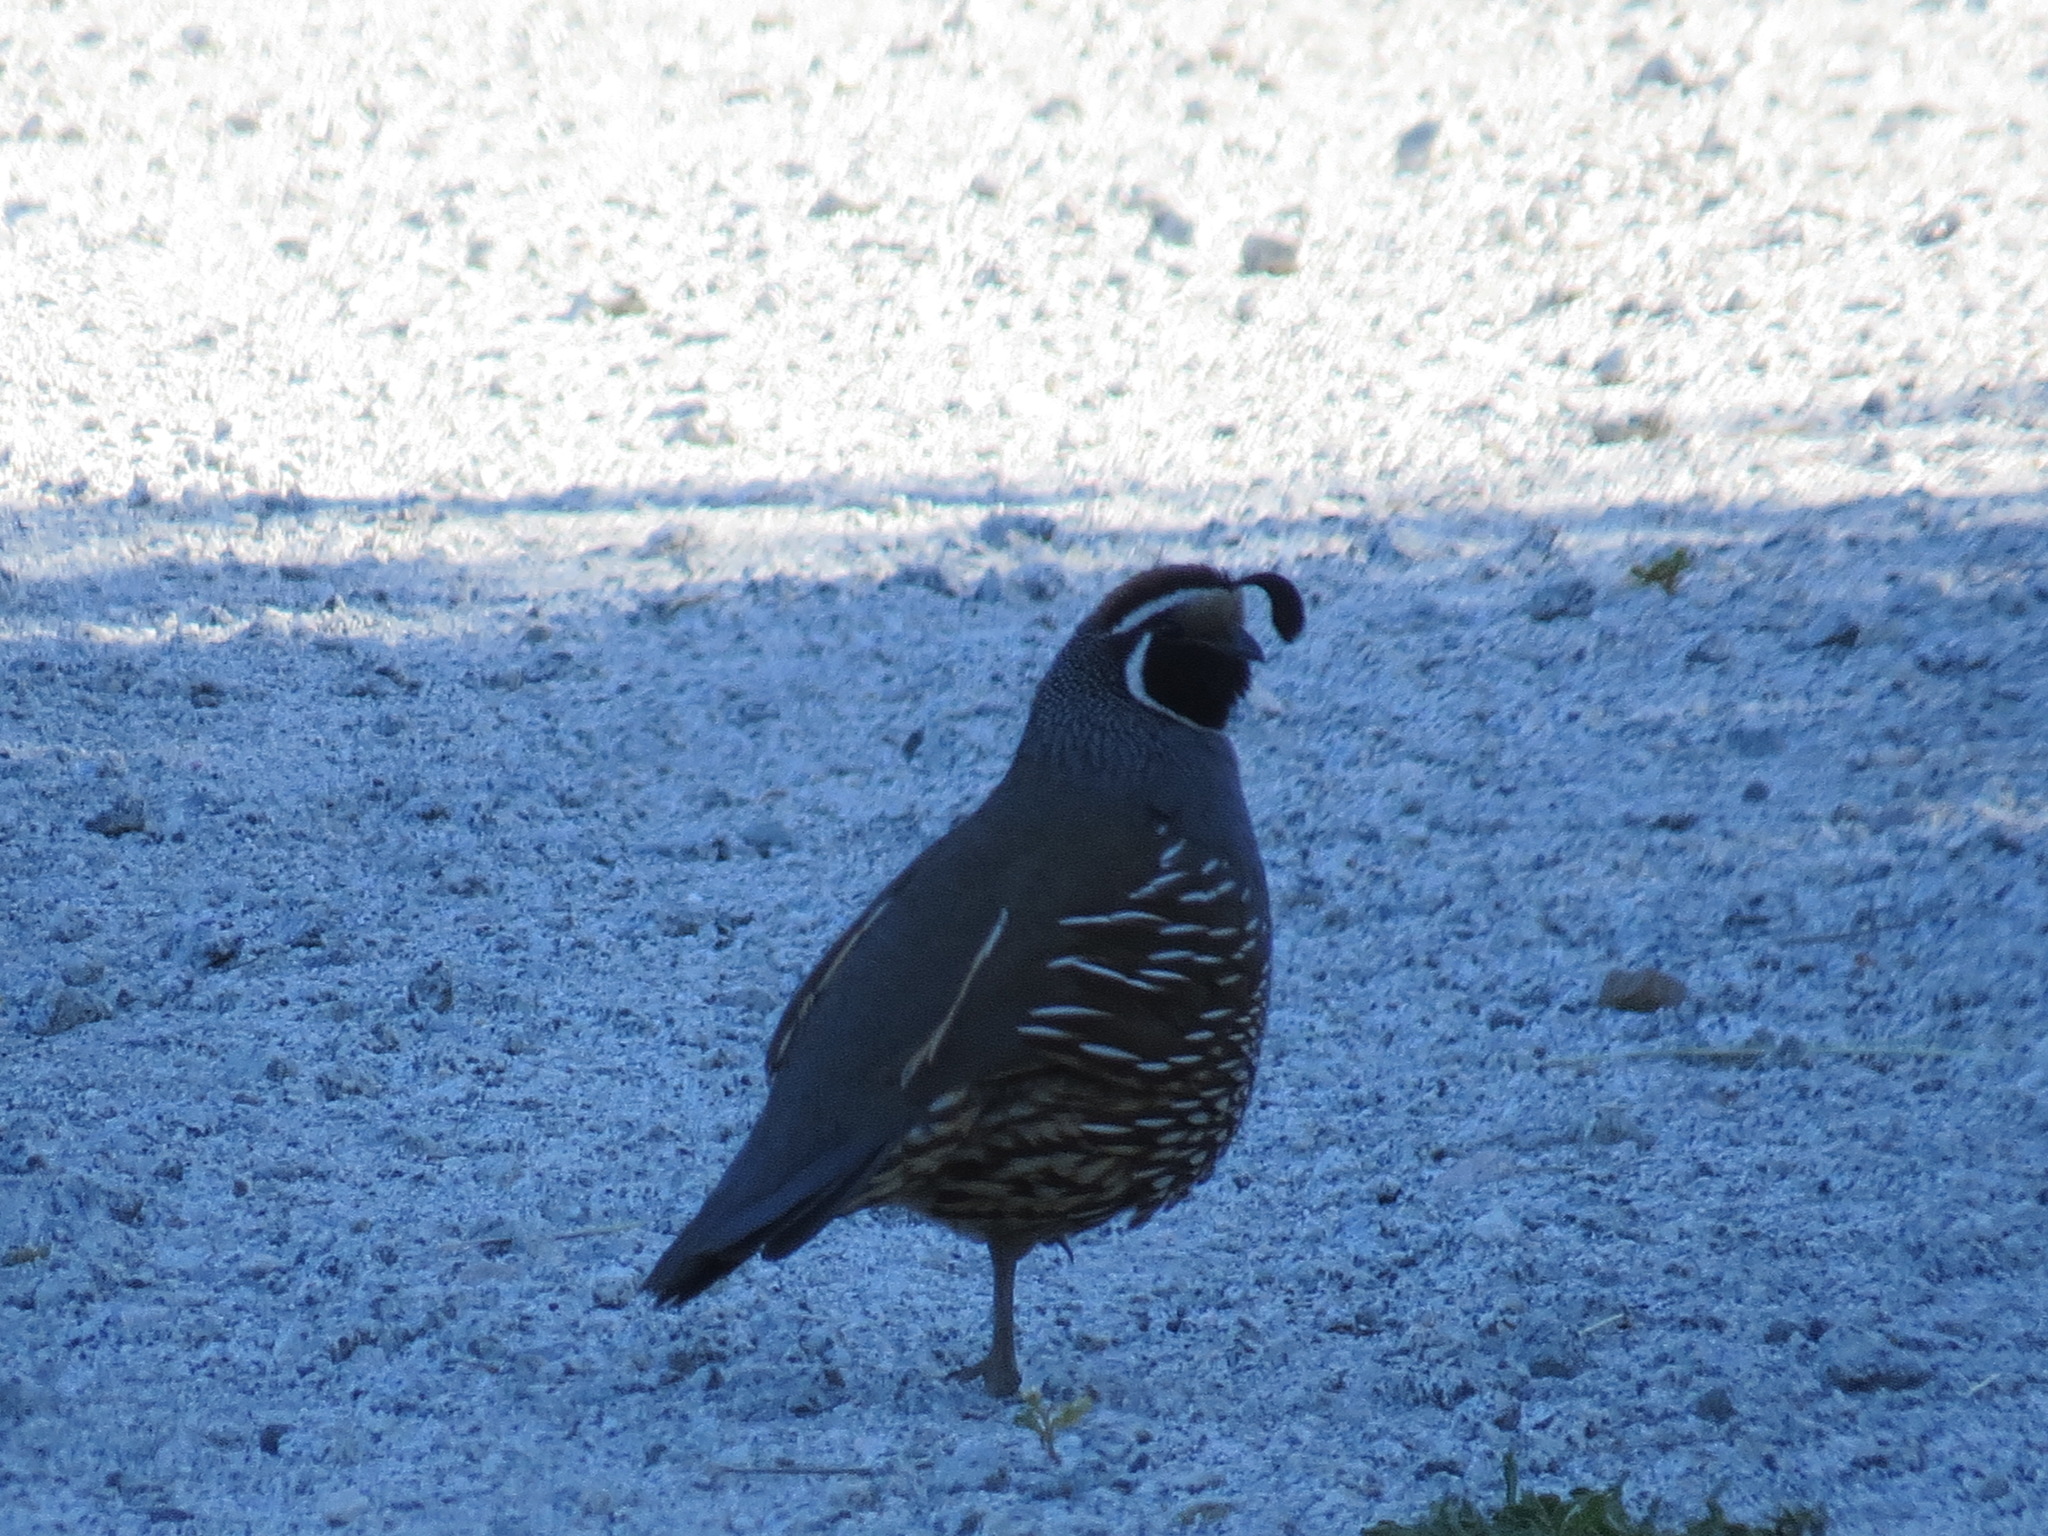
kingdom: Animalia
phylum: Chordata
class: Aves
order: Galliformes
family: Odontophoridae
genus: Callipepla
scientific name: Callipepla californica
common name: California quail
